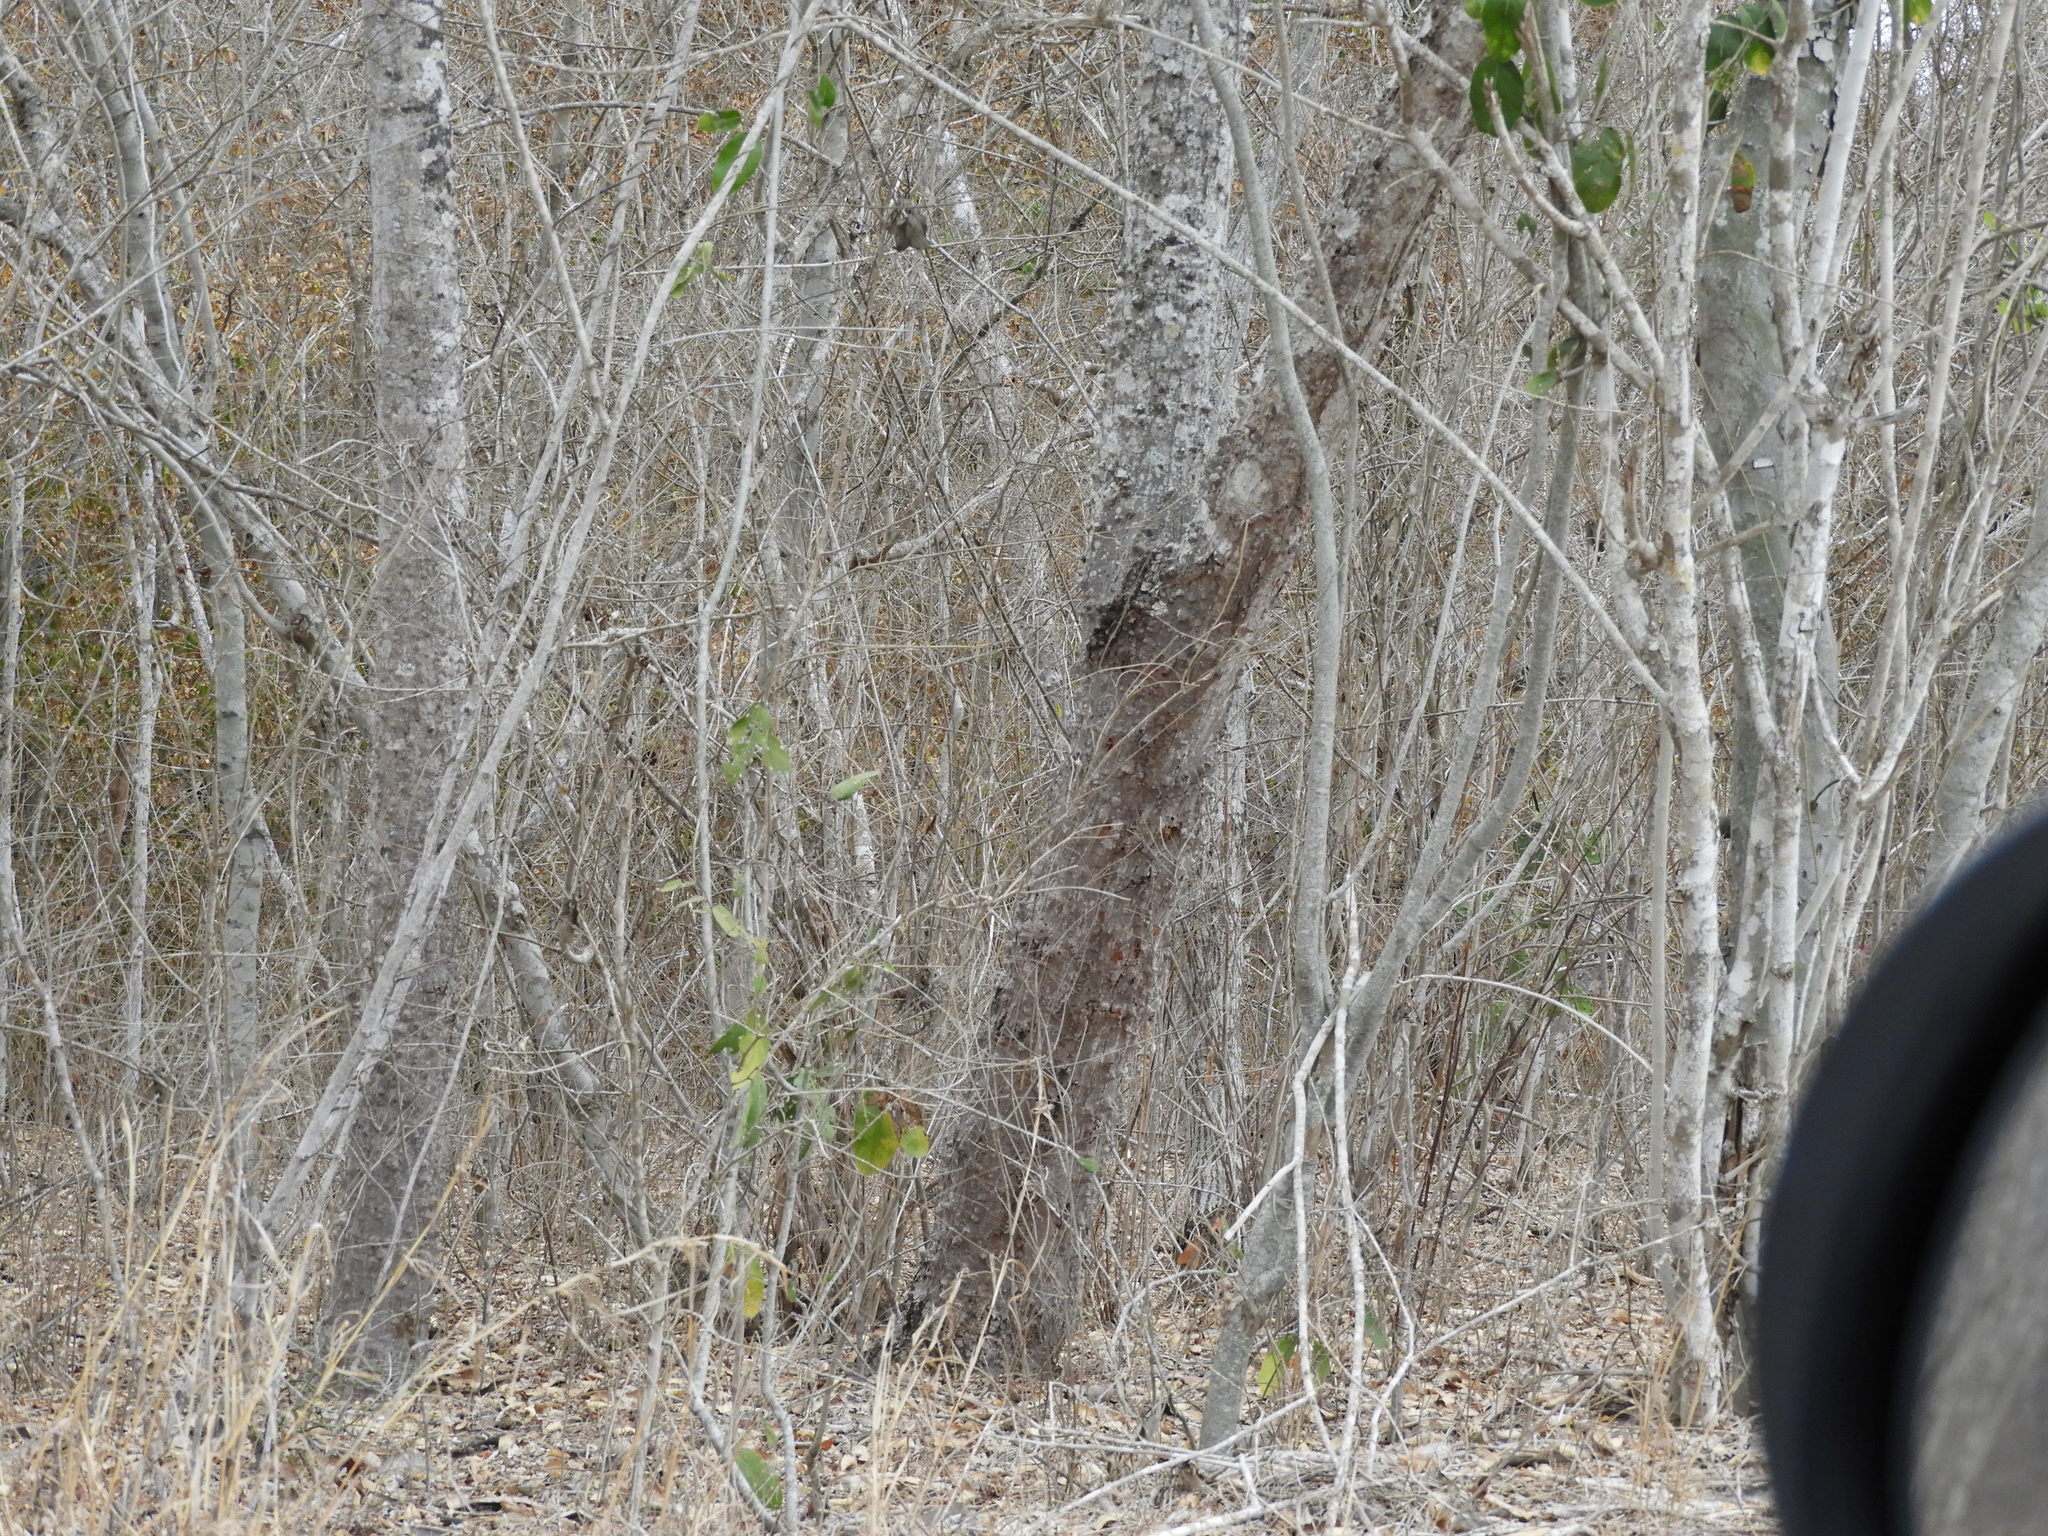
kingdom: Plantae
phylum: Tracheophyta
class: Magnoliopsida
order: Malvales
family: Malvaceae
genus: Ceiba
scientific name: Ceiba aesculifolia
